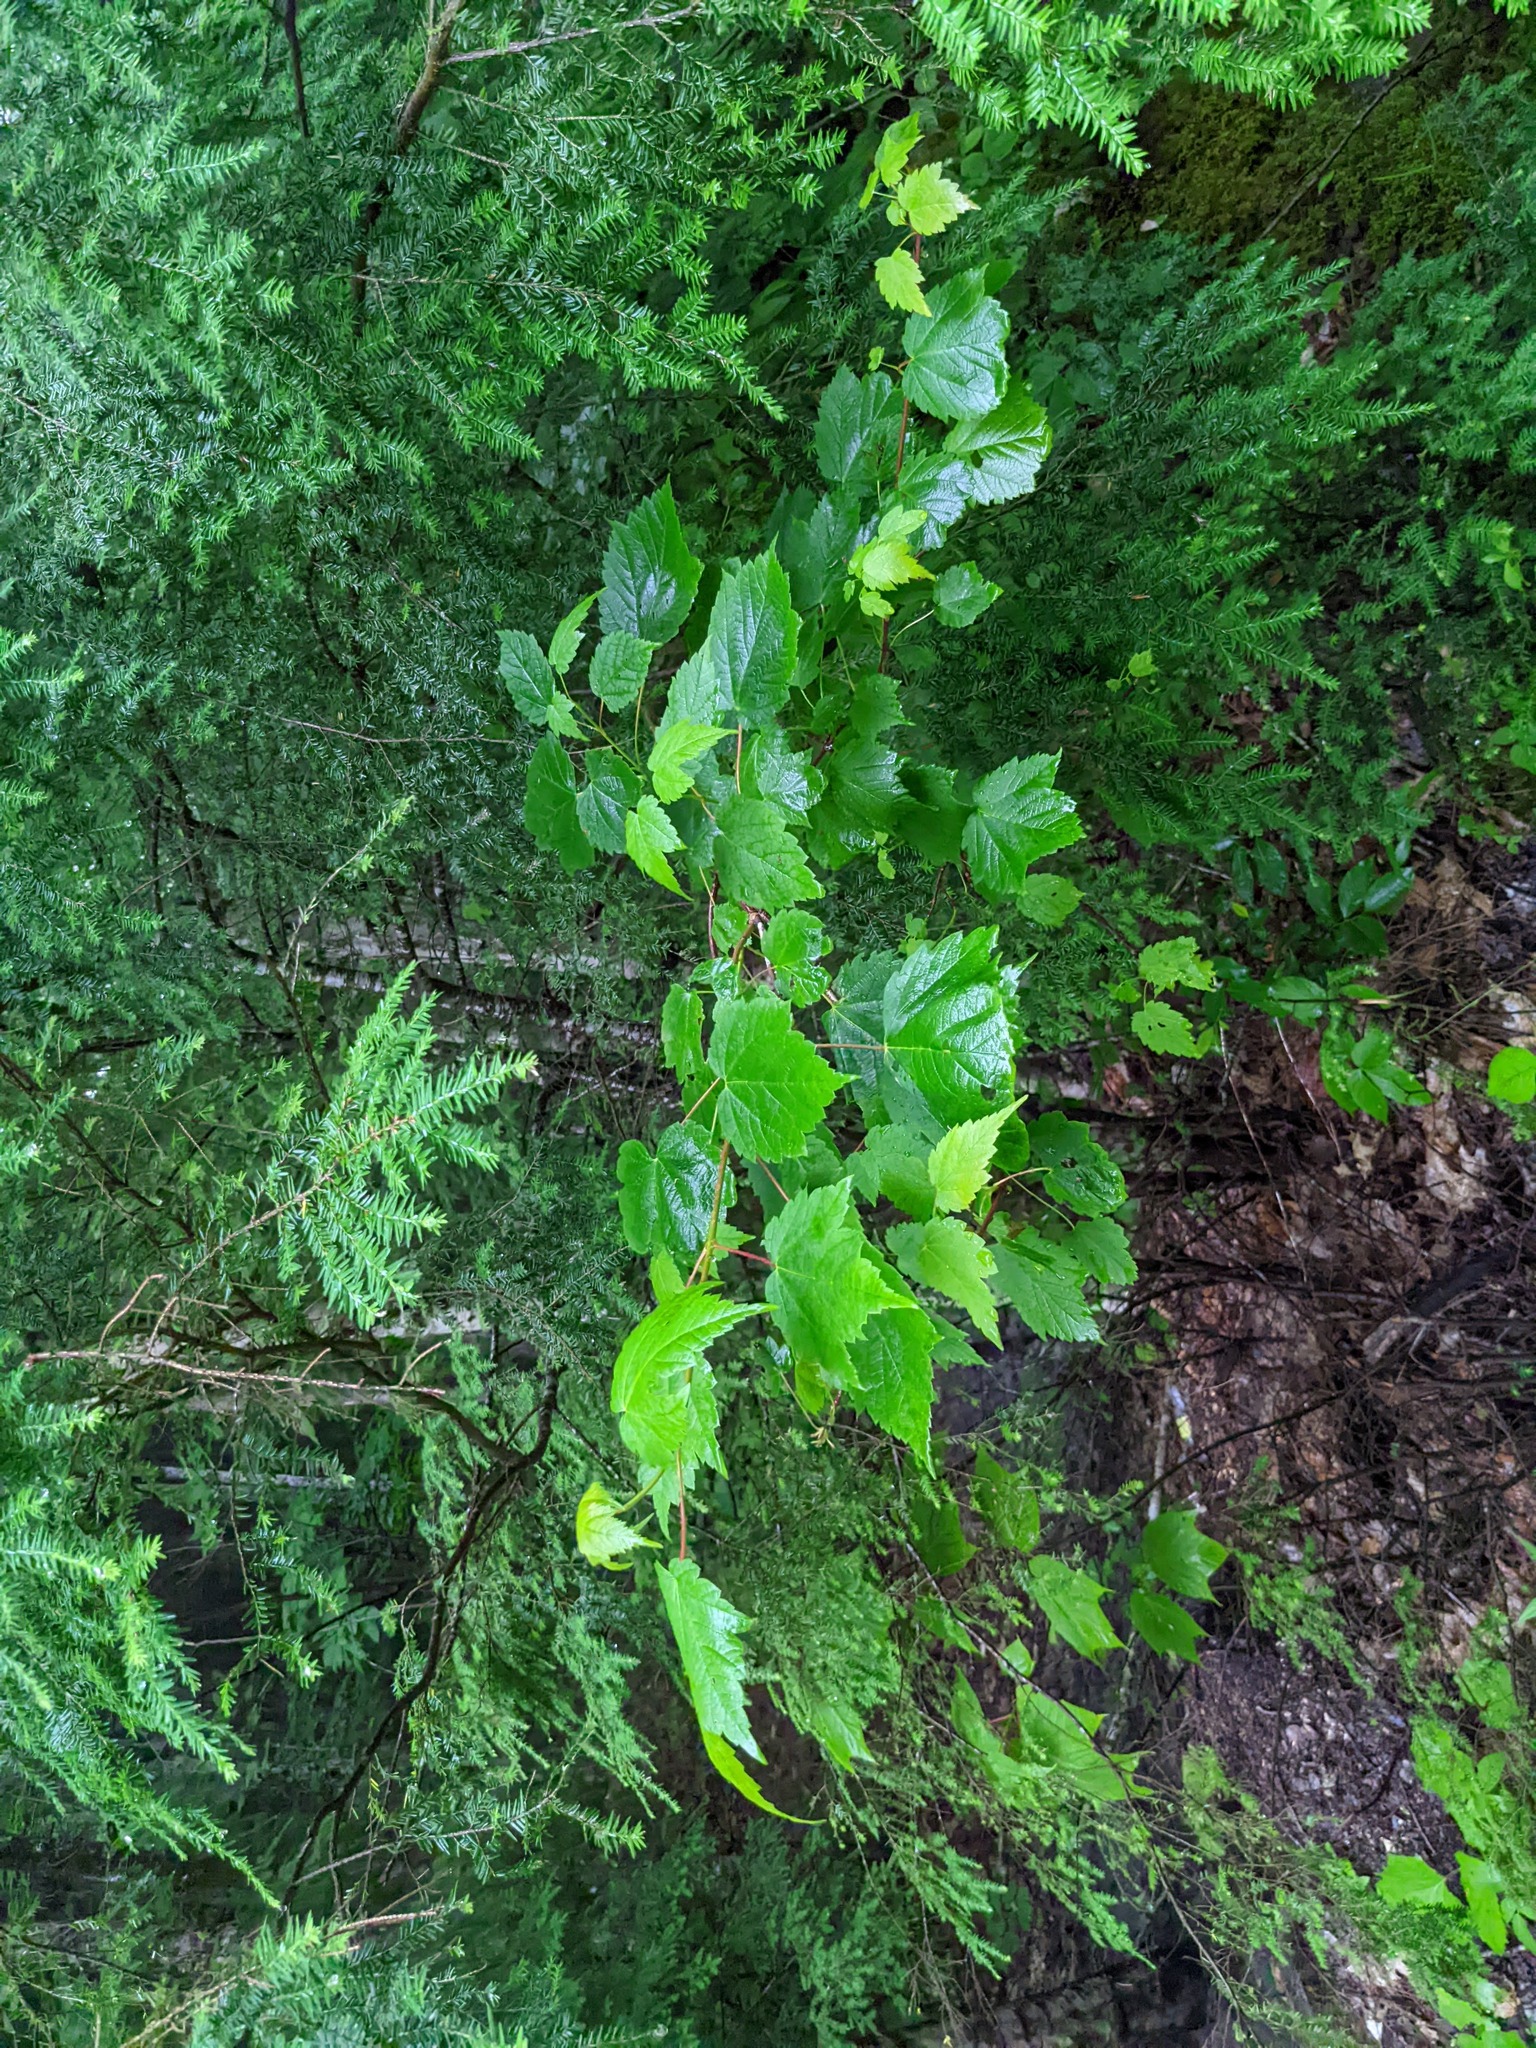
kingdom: Plantae
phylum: Tracheophyta
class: Magnoliopsida
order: Sapindales
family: Sapindaceae
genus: Acer
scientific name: Acer spicatum
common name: Mountain maple
